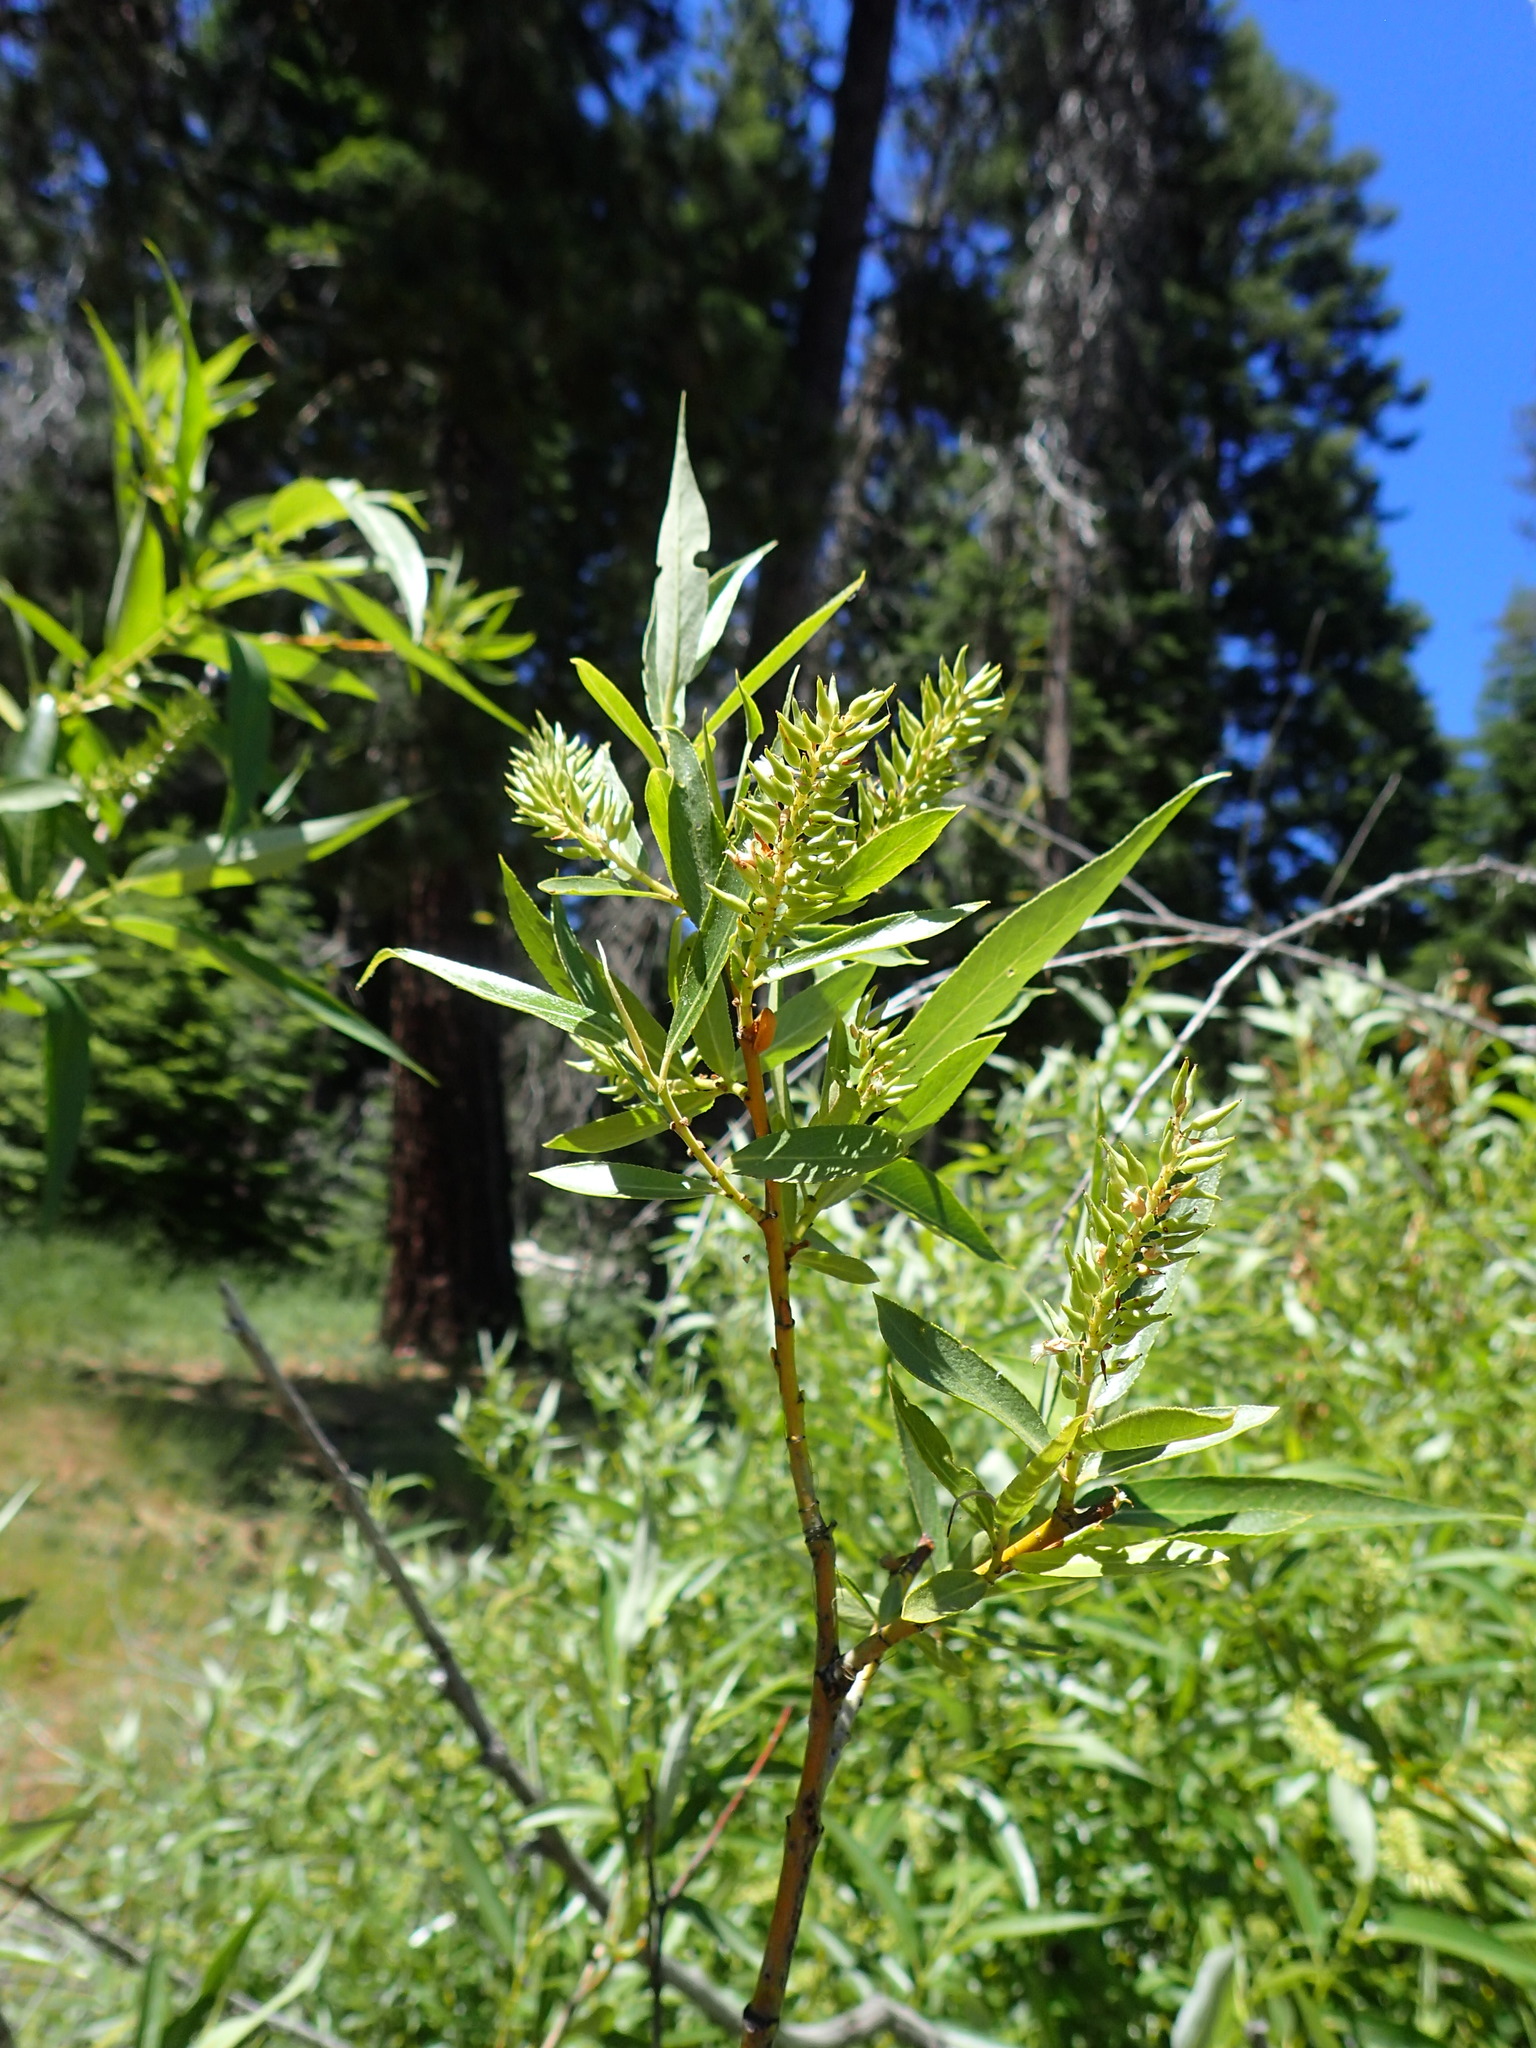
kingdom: Plantae
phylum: Tracheophyta
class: Magnoliopsida
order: Malpighiales
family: Salicaceae
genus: Salix
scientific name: Salix lucida
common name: Shining willow
